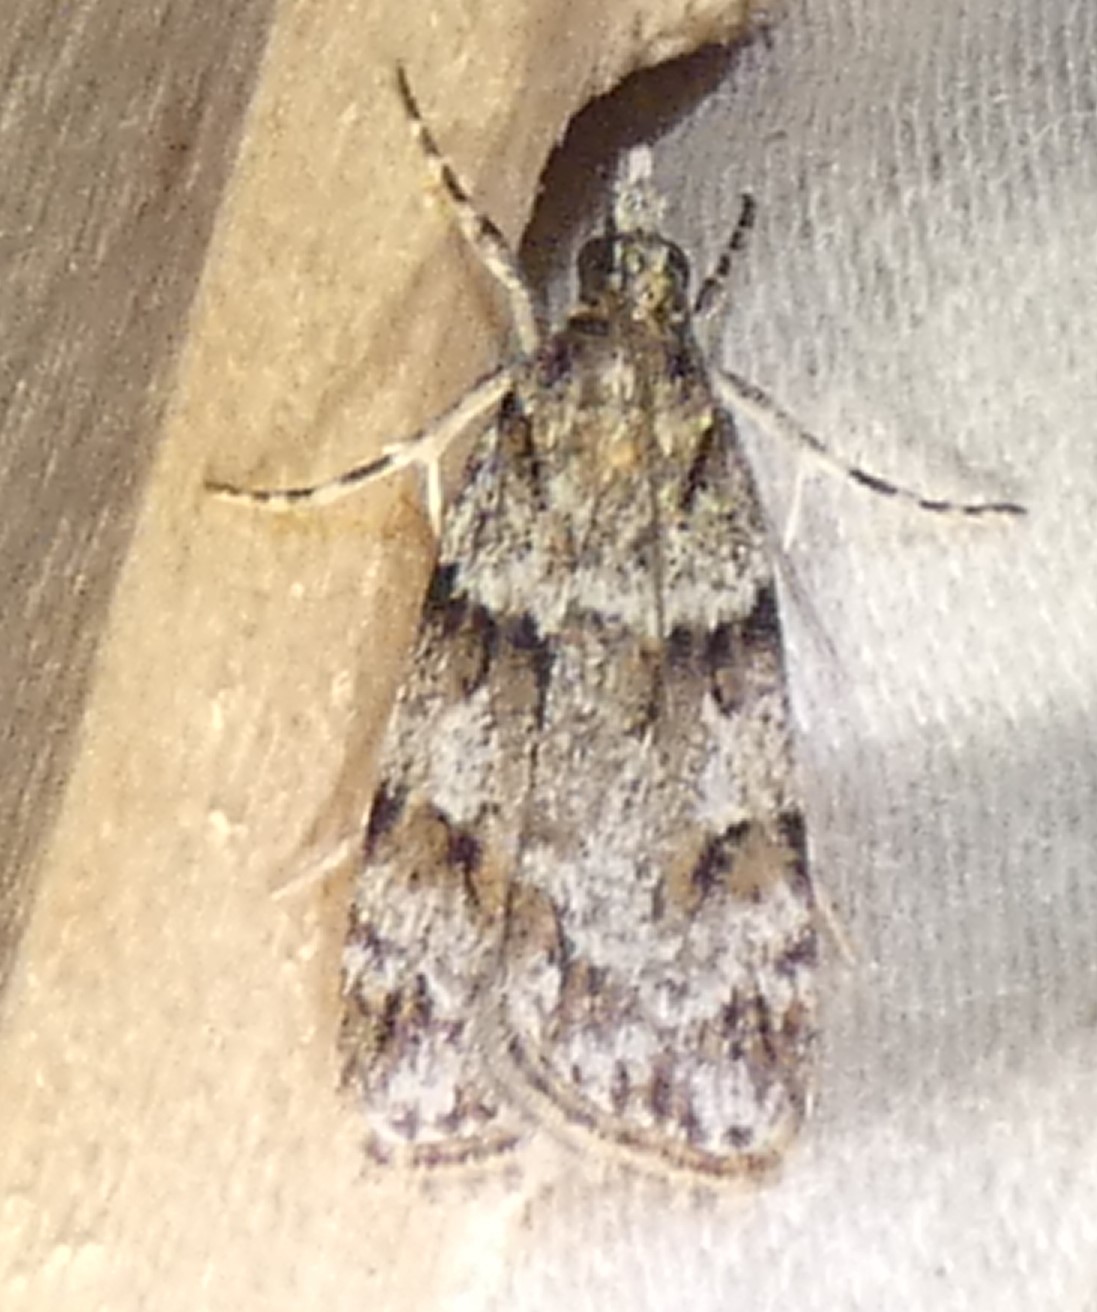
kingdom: Animalia
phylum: Arthropoda
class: Insecta
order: Lepidoptera
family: Crambidae
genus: Scoparia
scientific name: Scoparia biplagialis
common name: Double-striped scoparia moth
